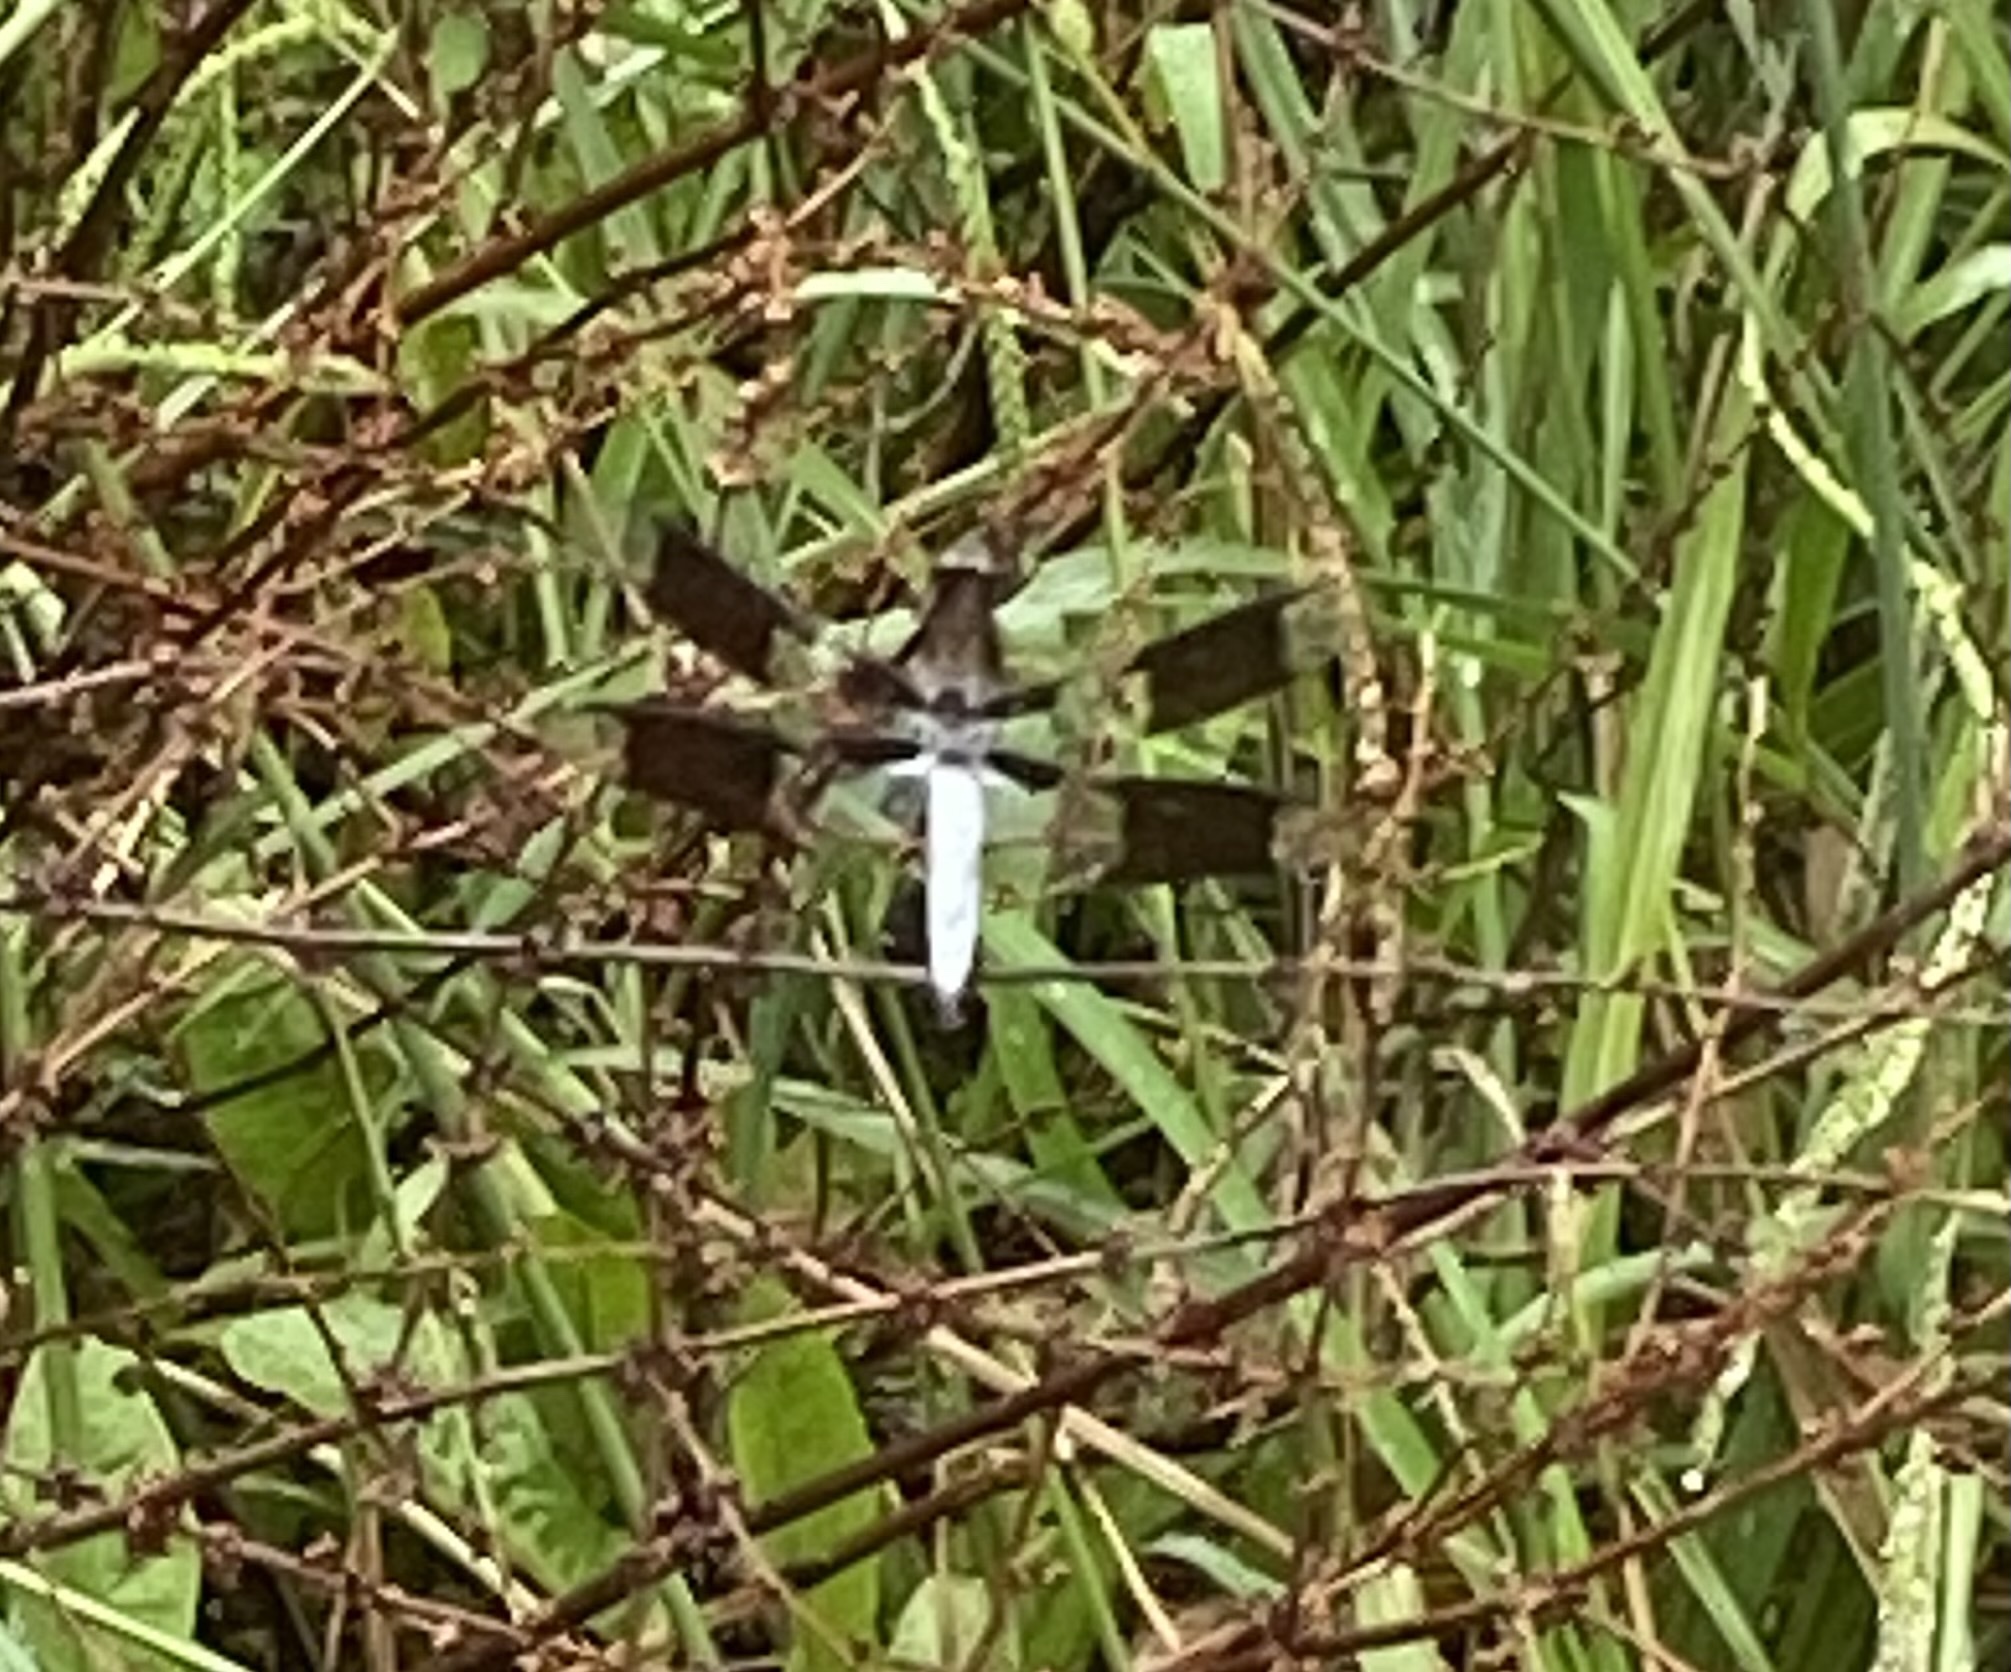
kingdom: Animalia
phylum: Arthropoda
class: Insecta
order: Odonata
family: Libellulidae
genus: Plathemis
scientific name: Plathemis lydia
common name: Common whitetail
